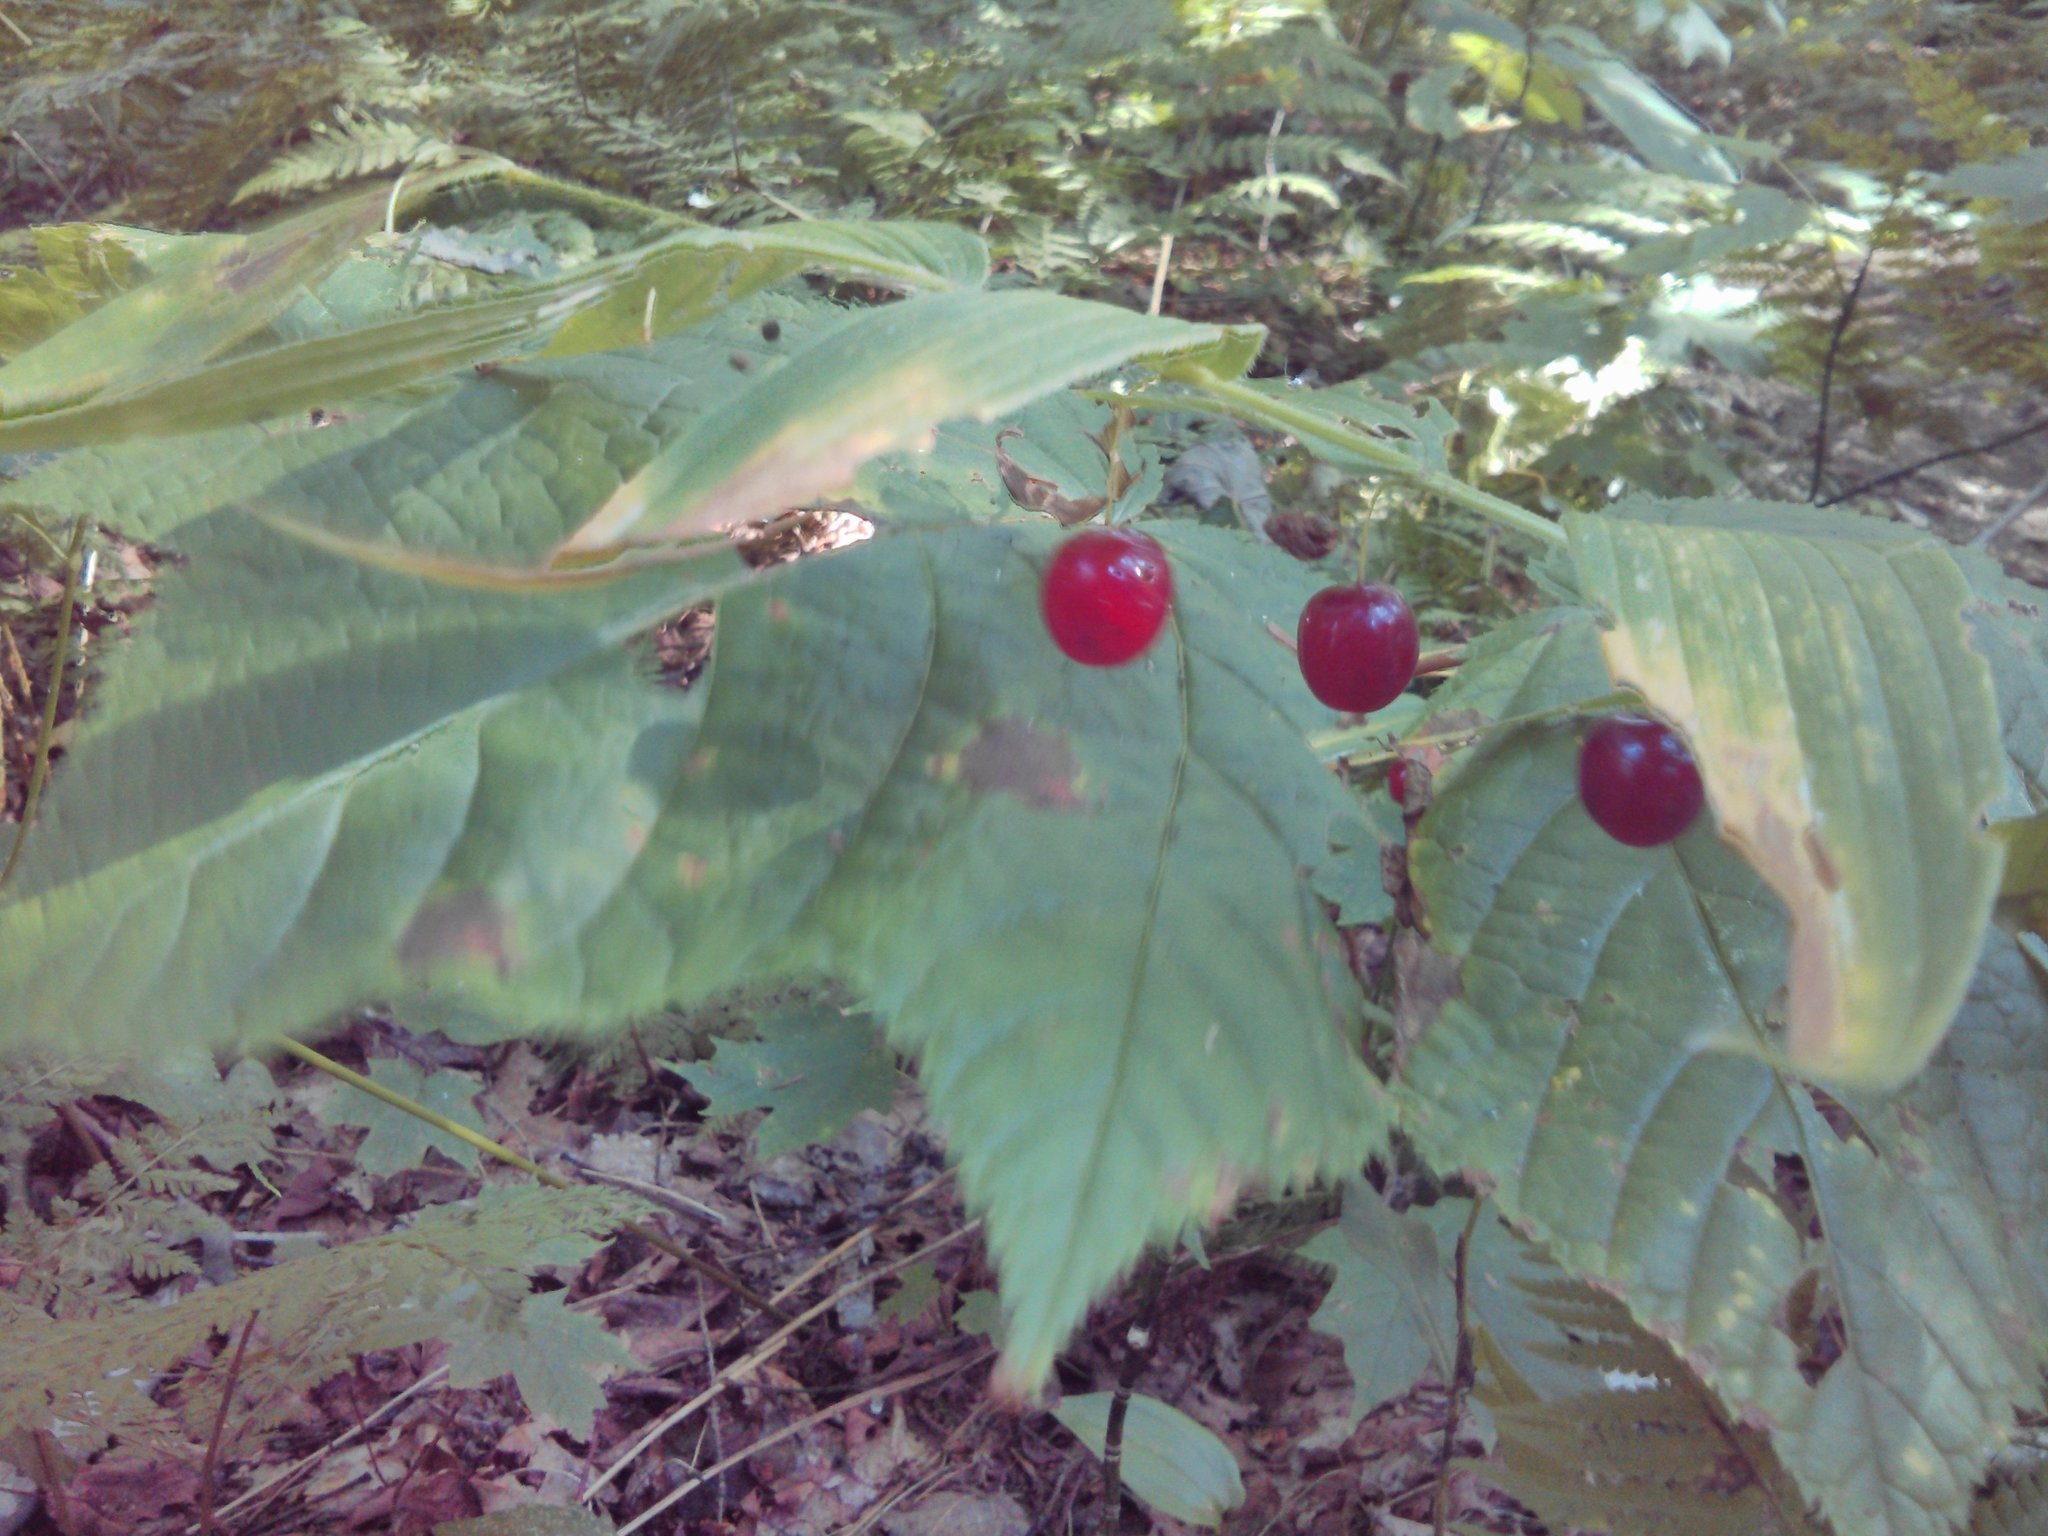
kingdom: Plantae
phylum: Tracheophyta
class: Liliopsida
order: Liliales
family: Liliaceae
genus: Streptopus
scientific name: Streptopus lanceolatus
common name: Rose mandarin
